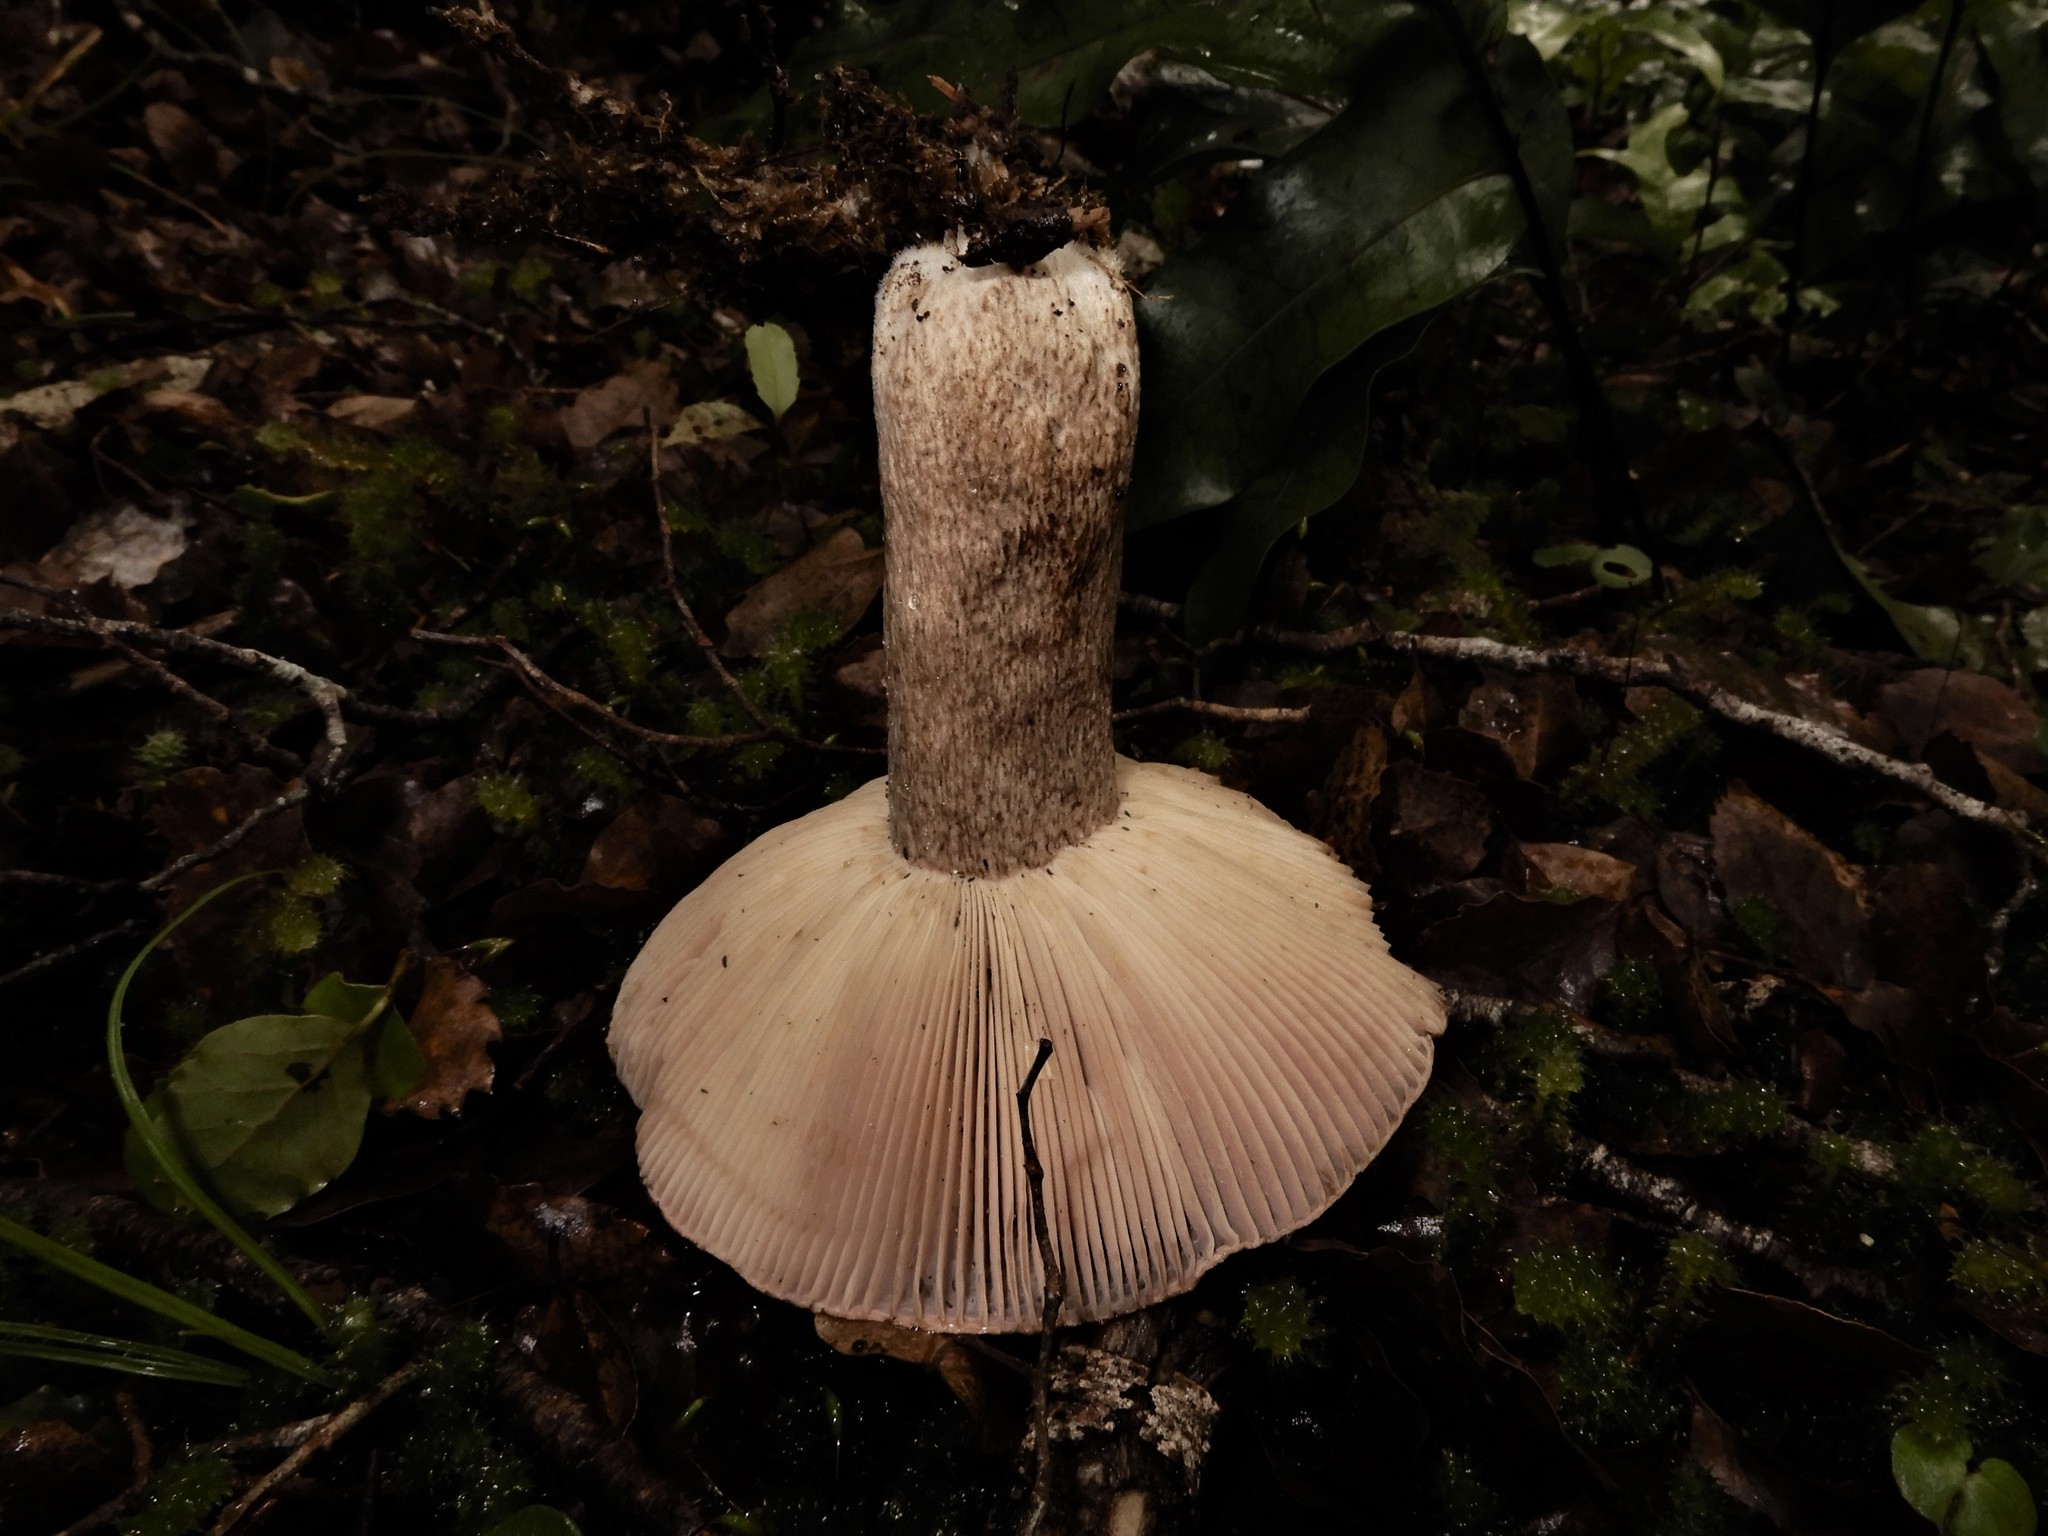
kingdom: Fungi
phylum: Basidiomycota
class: Agaricomycetes
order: Russulales
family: Russulaceae
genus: Russula
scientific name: Russula griseobrunnea
